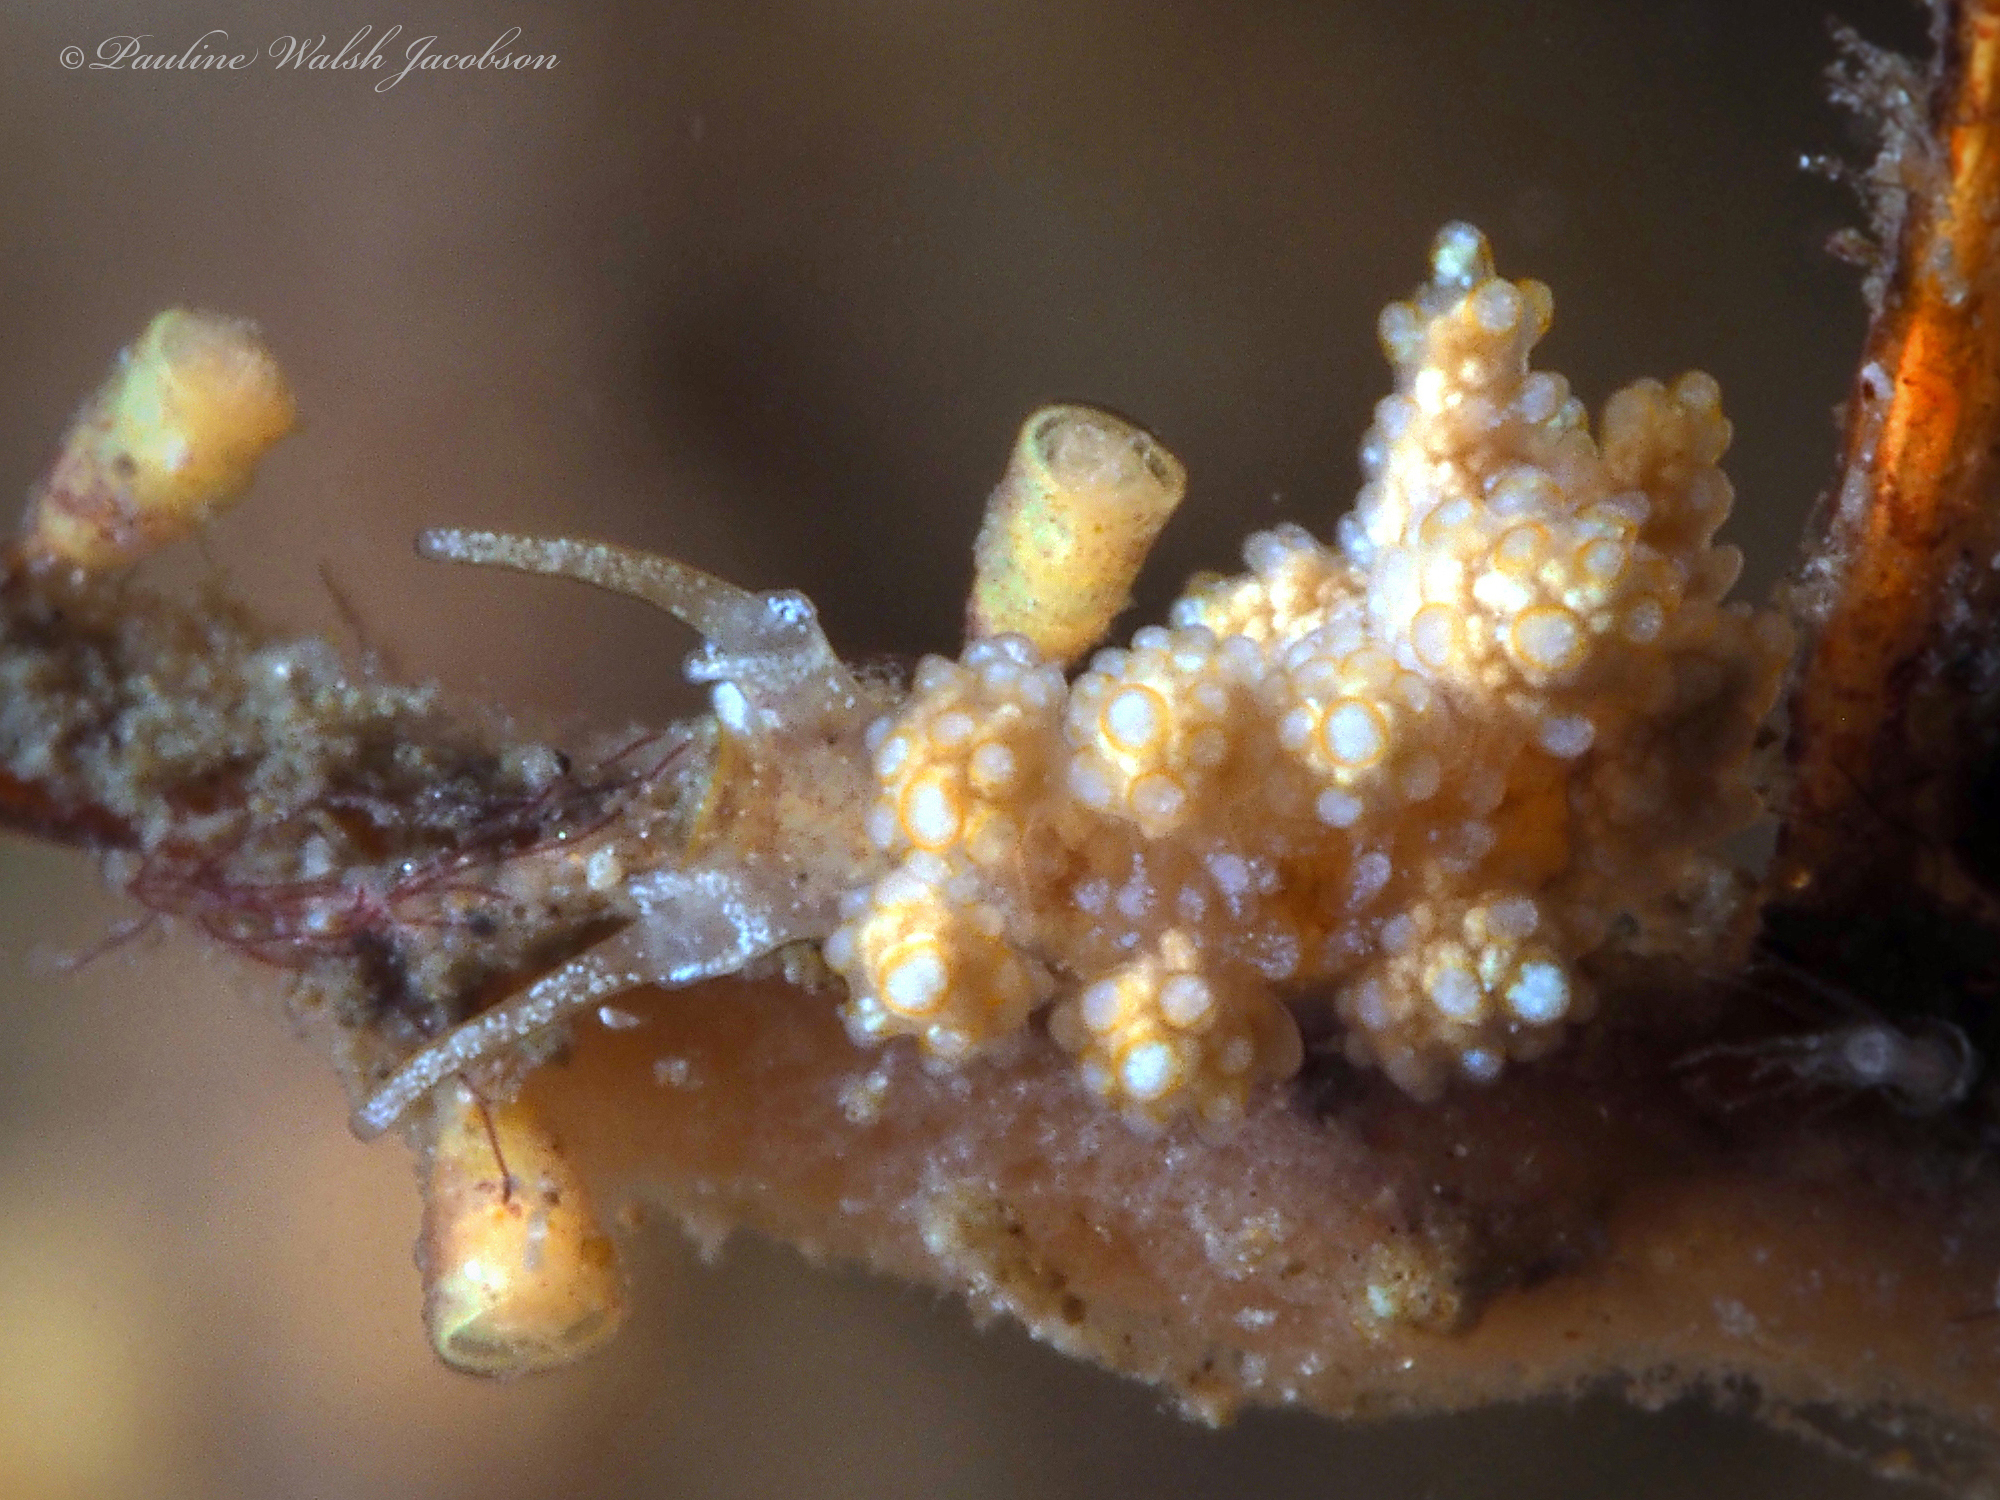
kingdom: Animalia
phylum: Mollusca
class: Gastropoda
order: Nudibranchia
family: Dotidae
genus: Doto
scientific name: Doto torrelavega
